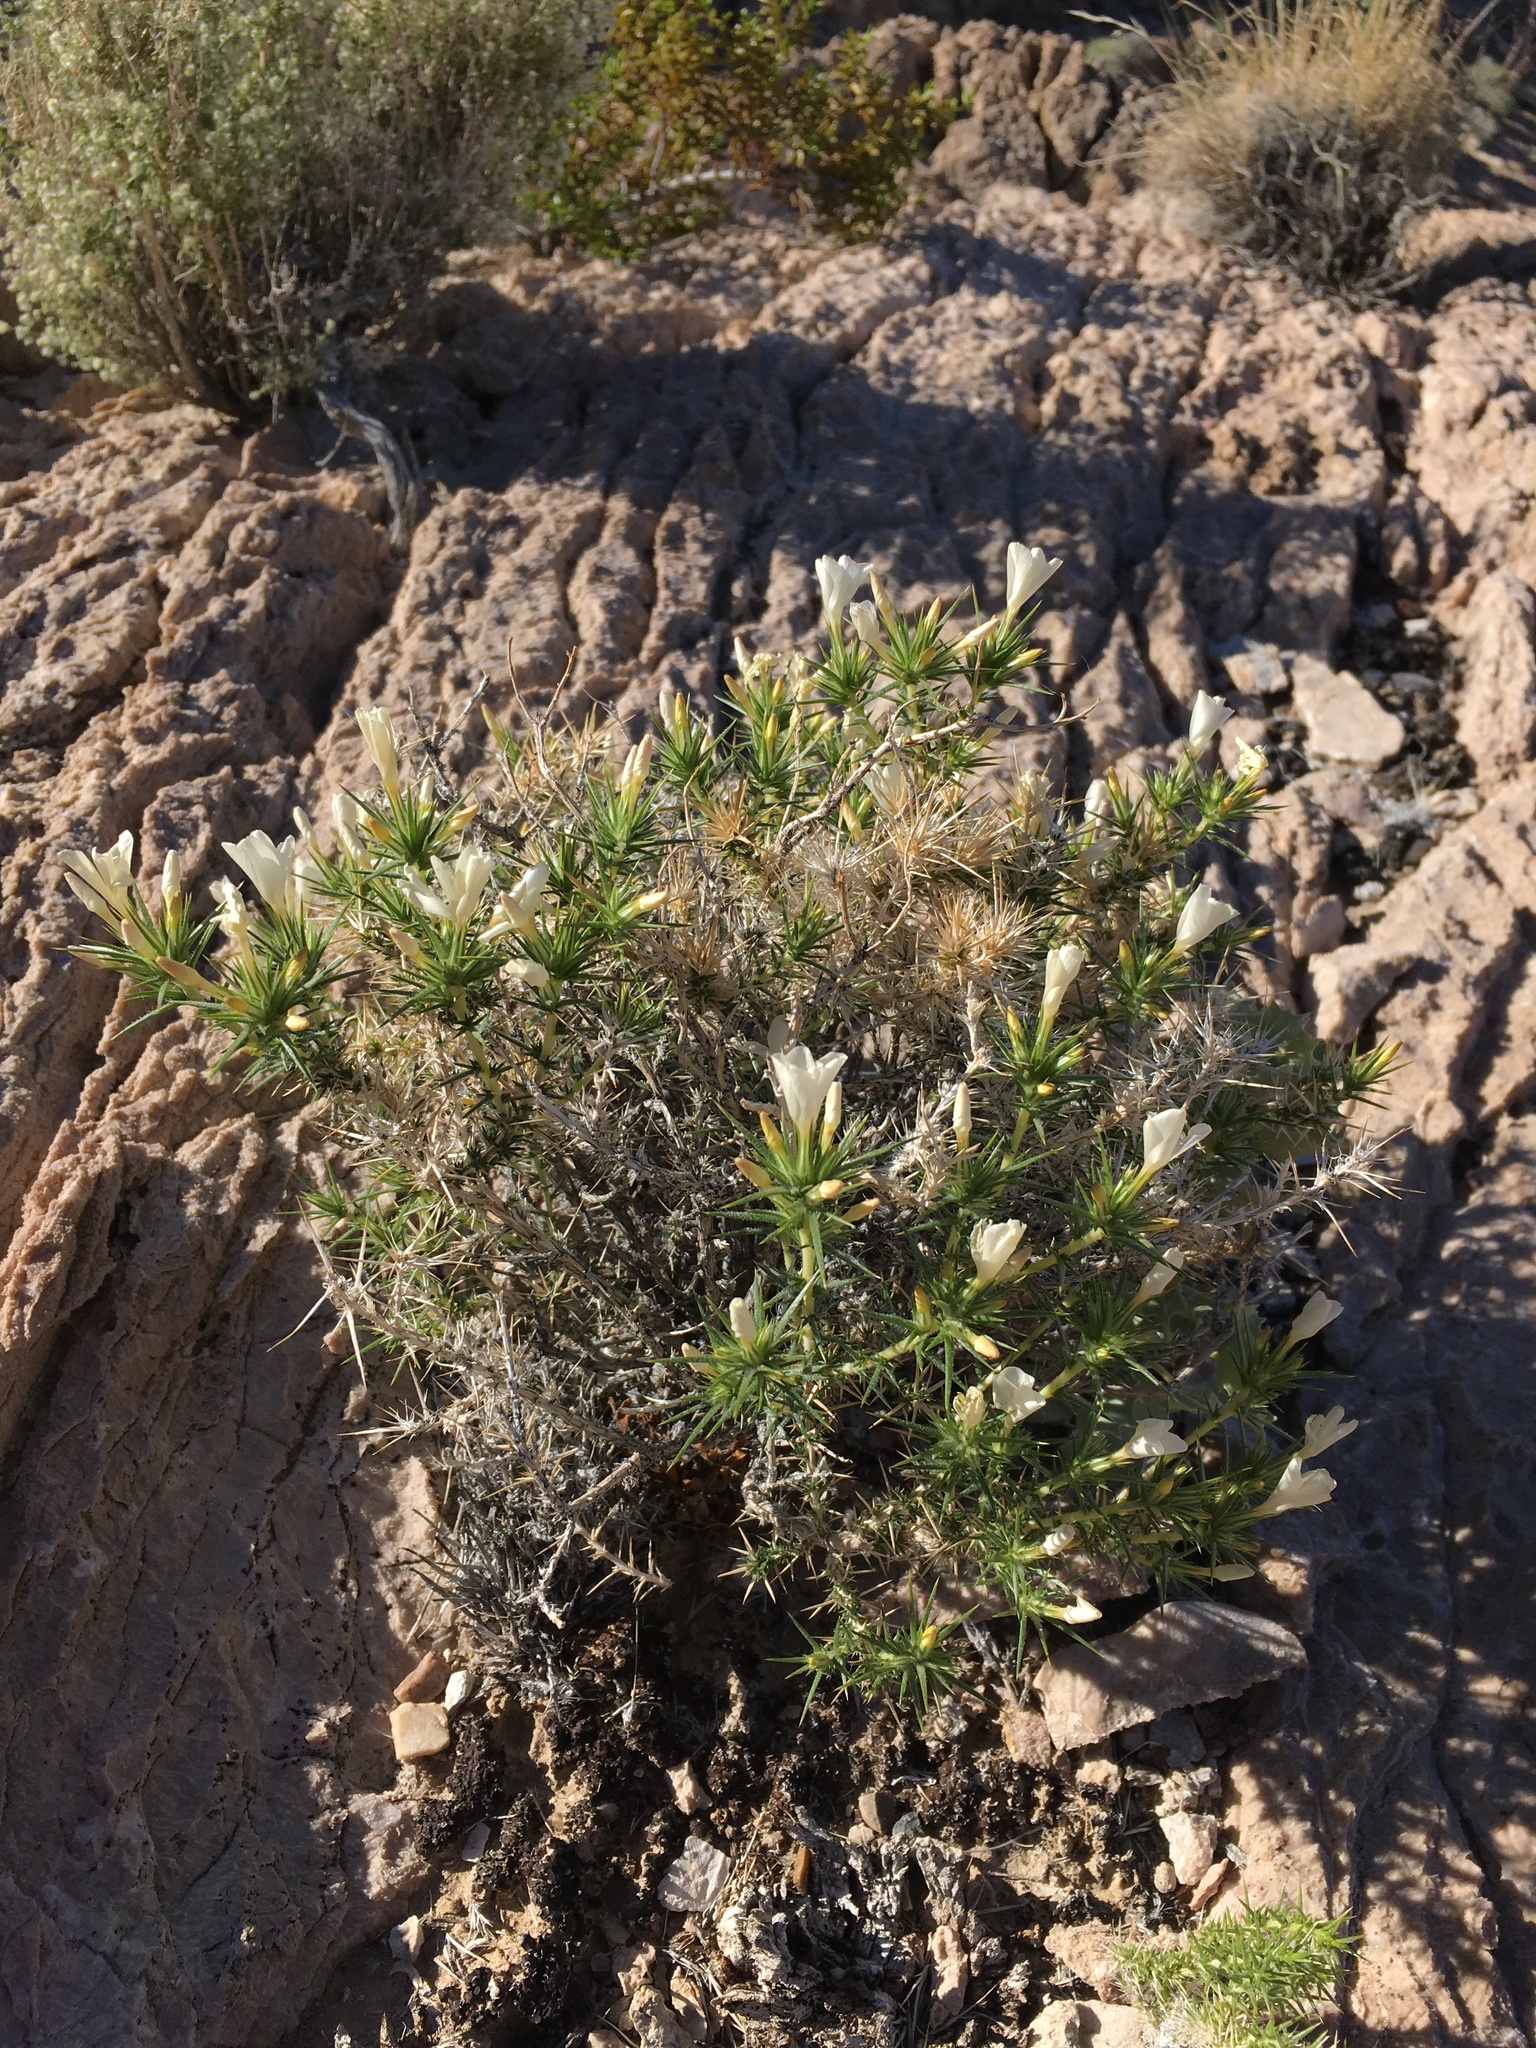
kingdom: Plantae
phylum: Tracheophyta
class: Magnoliopsida
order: Ericales
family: Polemoniaceae
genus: Linanthus
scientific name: Linanthus pungens
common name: Granite prickly phlox
